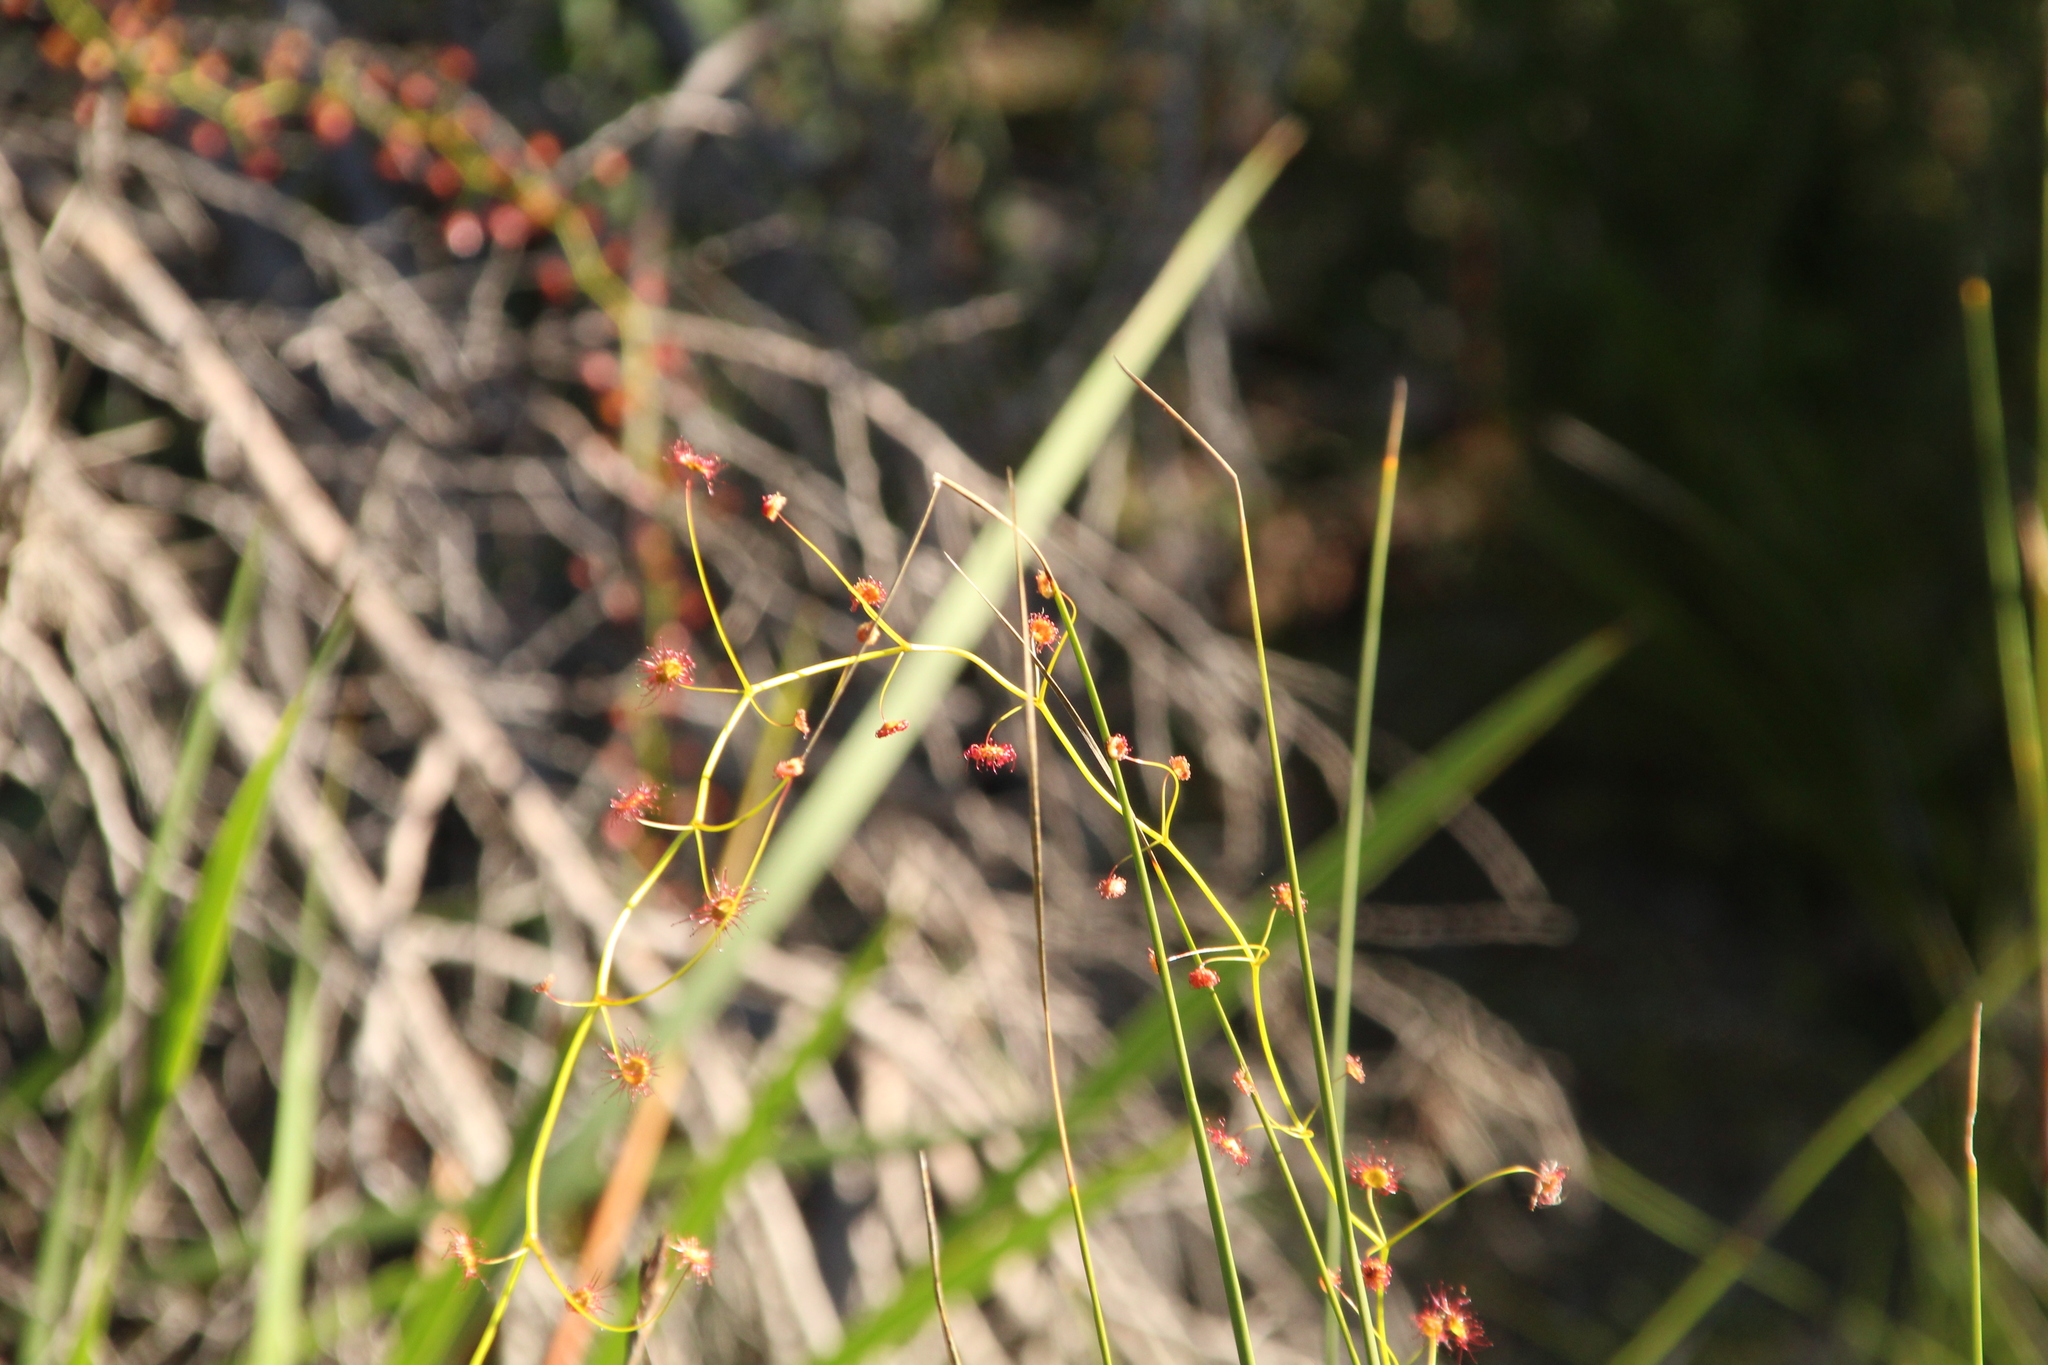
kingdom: Plantae
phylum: Tracheophyta
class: Magnoliopsida
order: Caryophyllales
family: Droseraceae
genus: Drosera
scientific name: Drosera pallida
